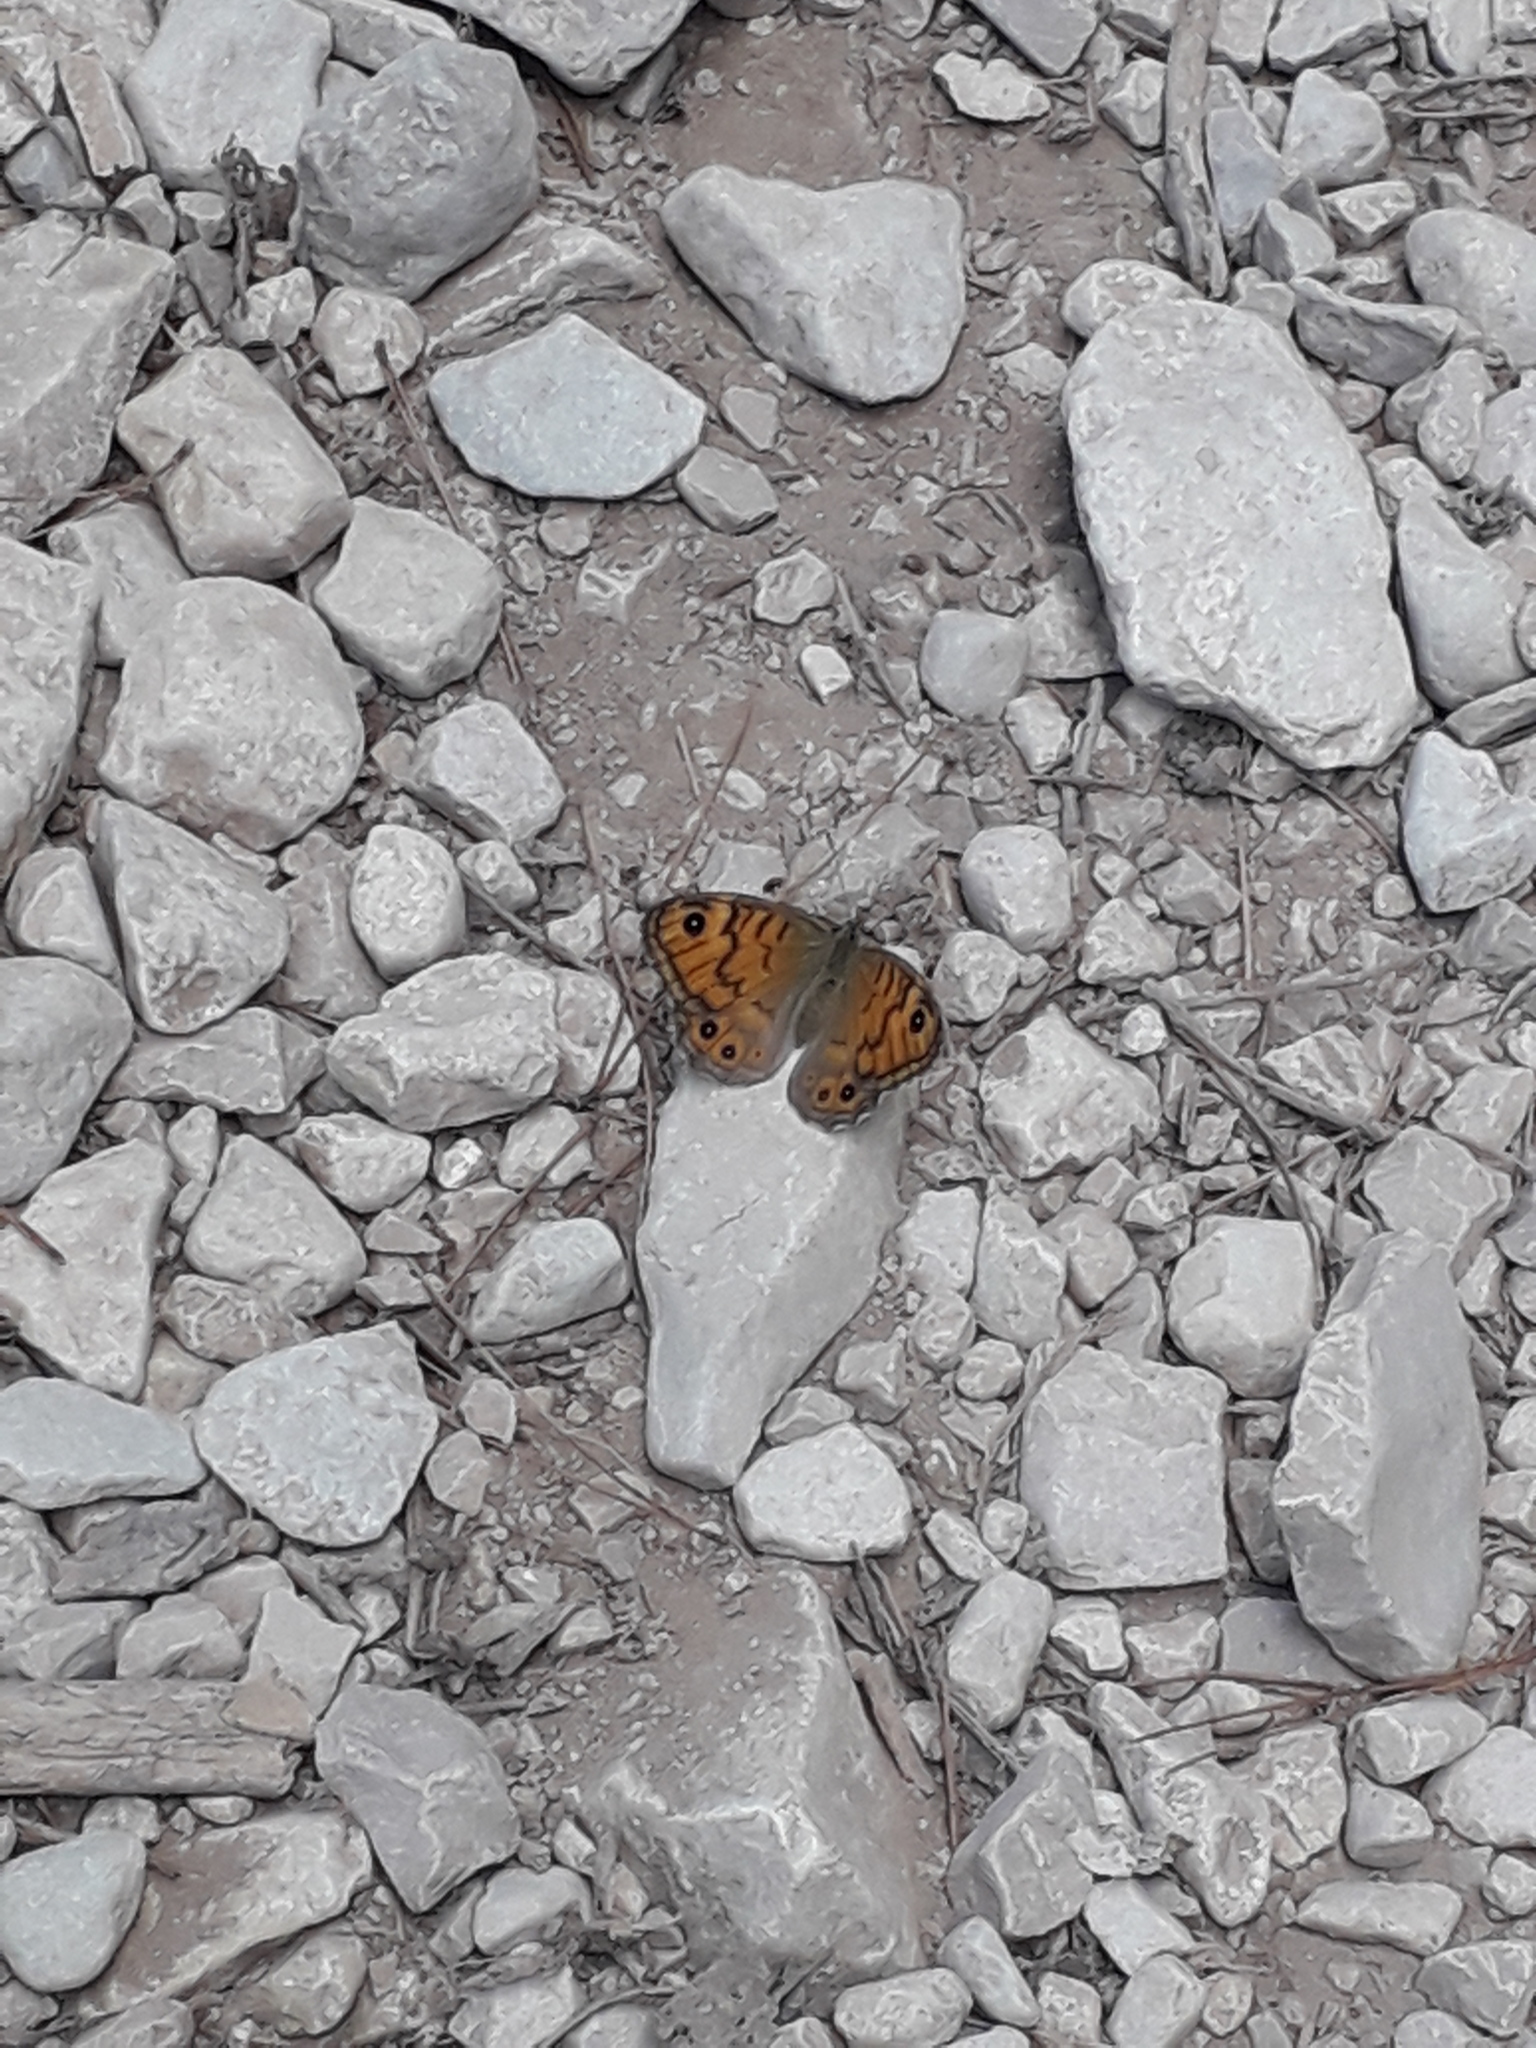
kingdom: Animalia
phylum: Arthropoda
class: Insecta
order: Lepidoptera
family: Nymphalidae
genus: Pararge
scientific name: Pararge Lasiommata megera
